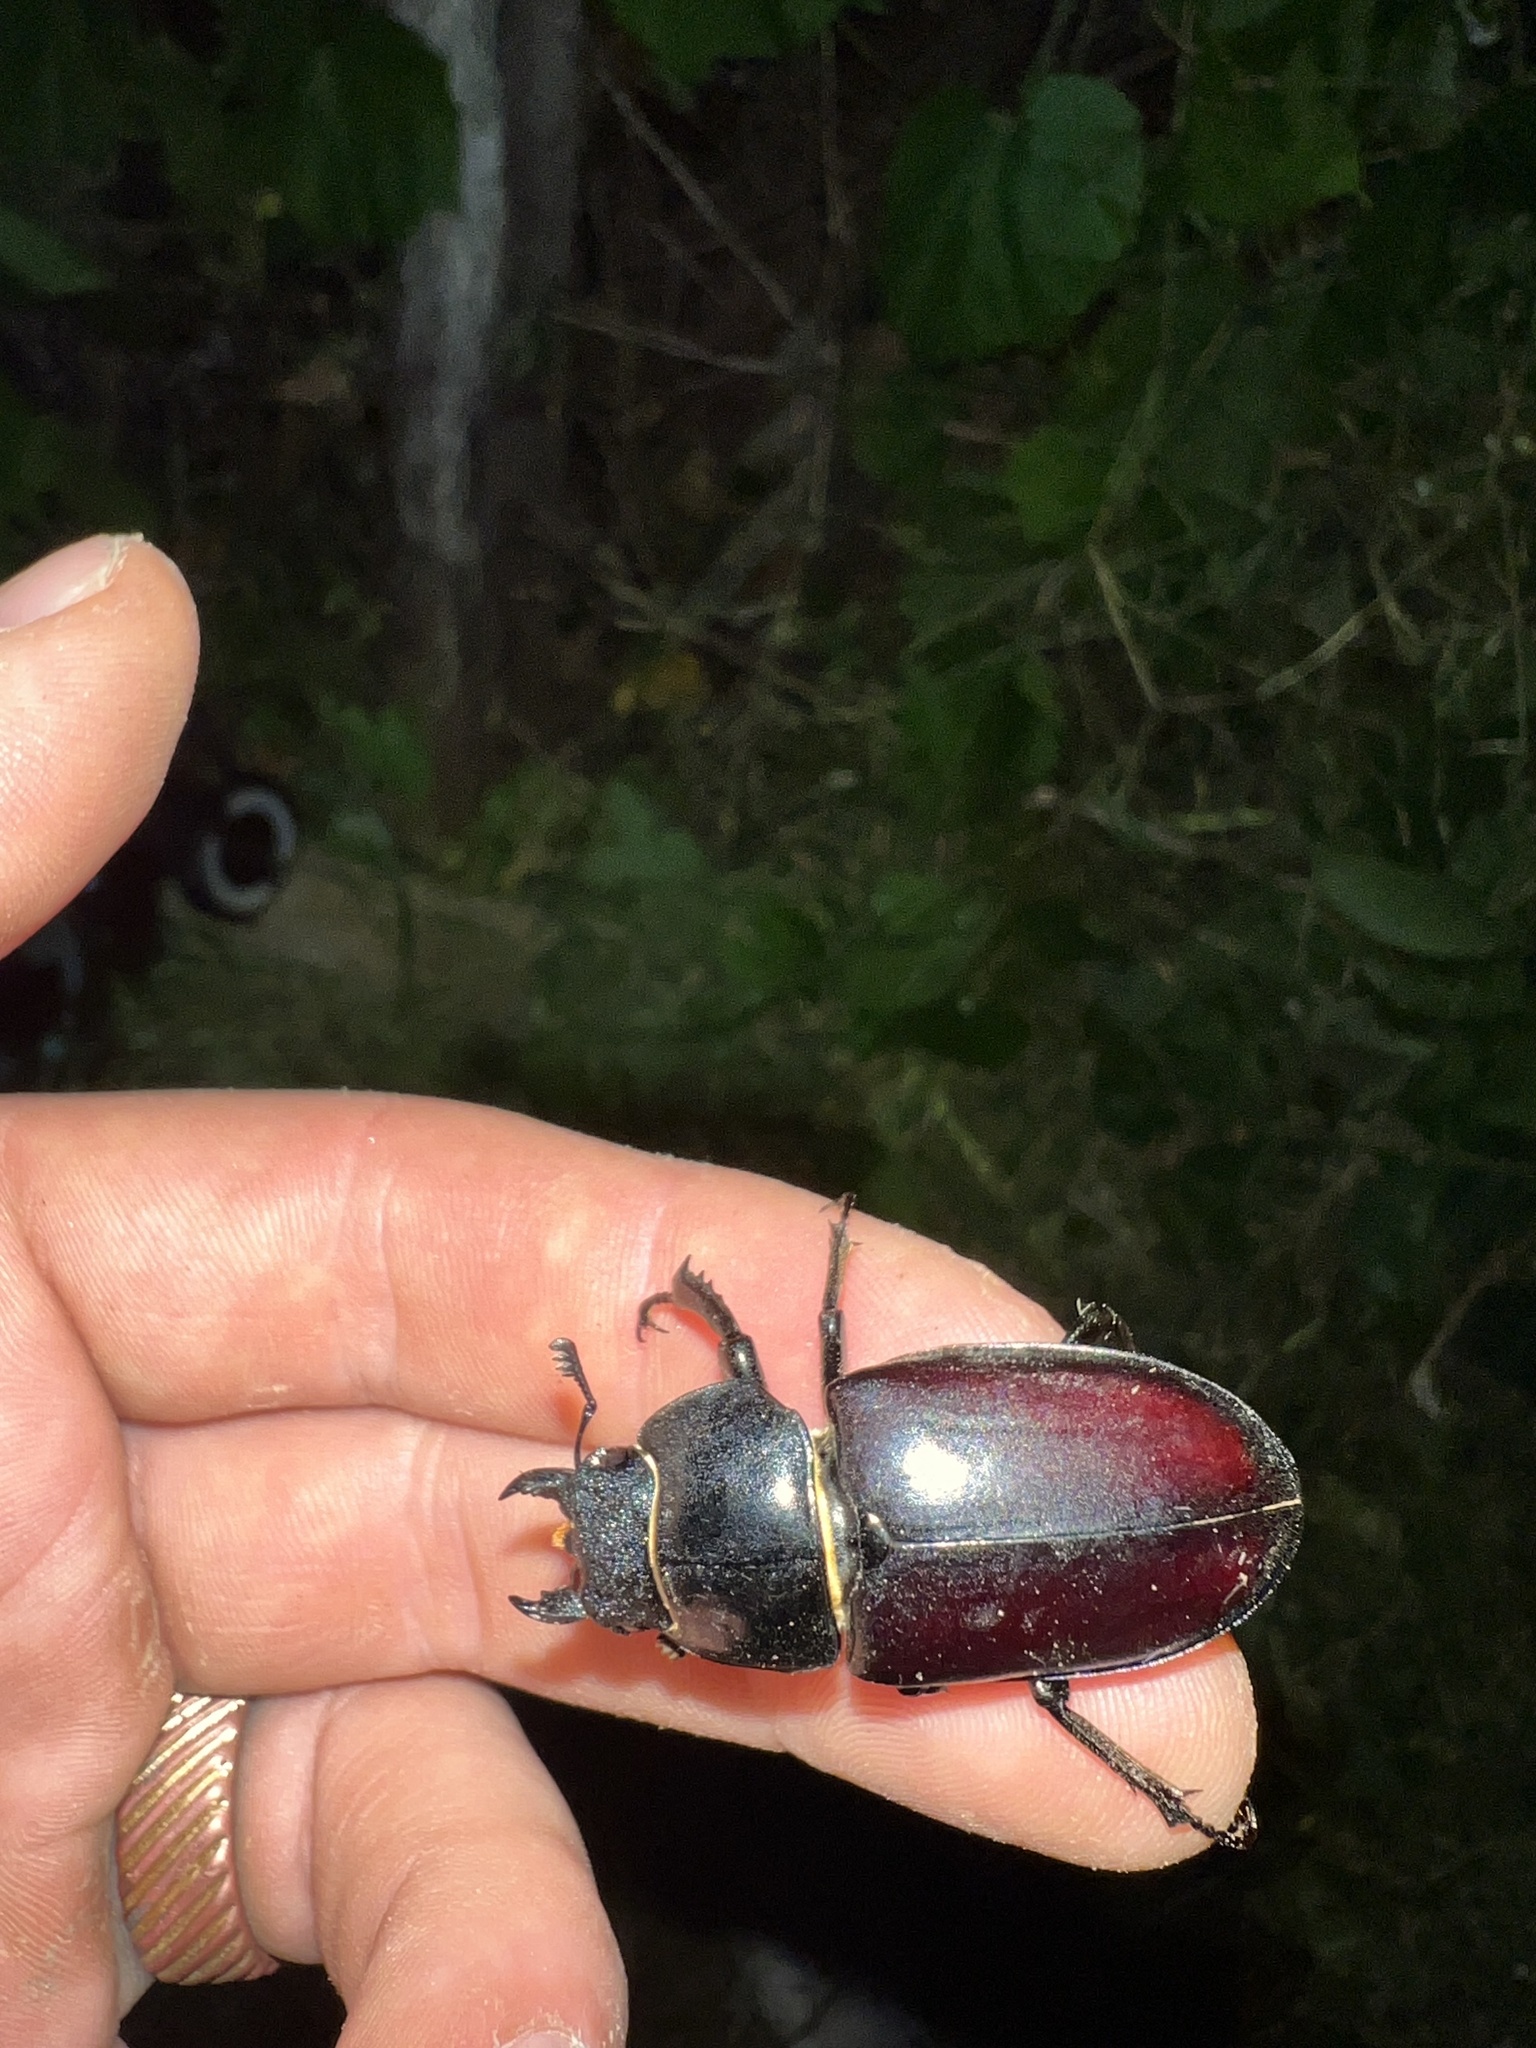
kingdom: Animalia
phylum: Arthropoda
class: Insecta
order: Coleoptera
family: Lucanidae
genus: Lucanus
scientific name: Lucanus cervus
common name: Stag beetle
